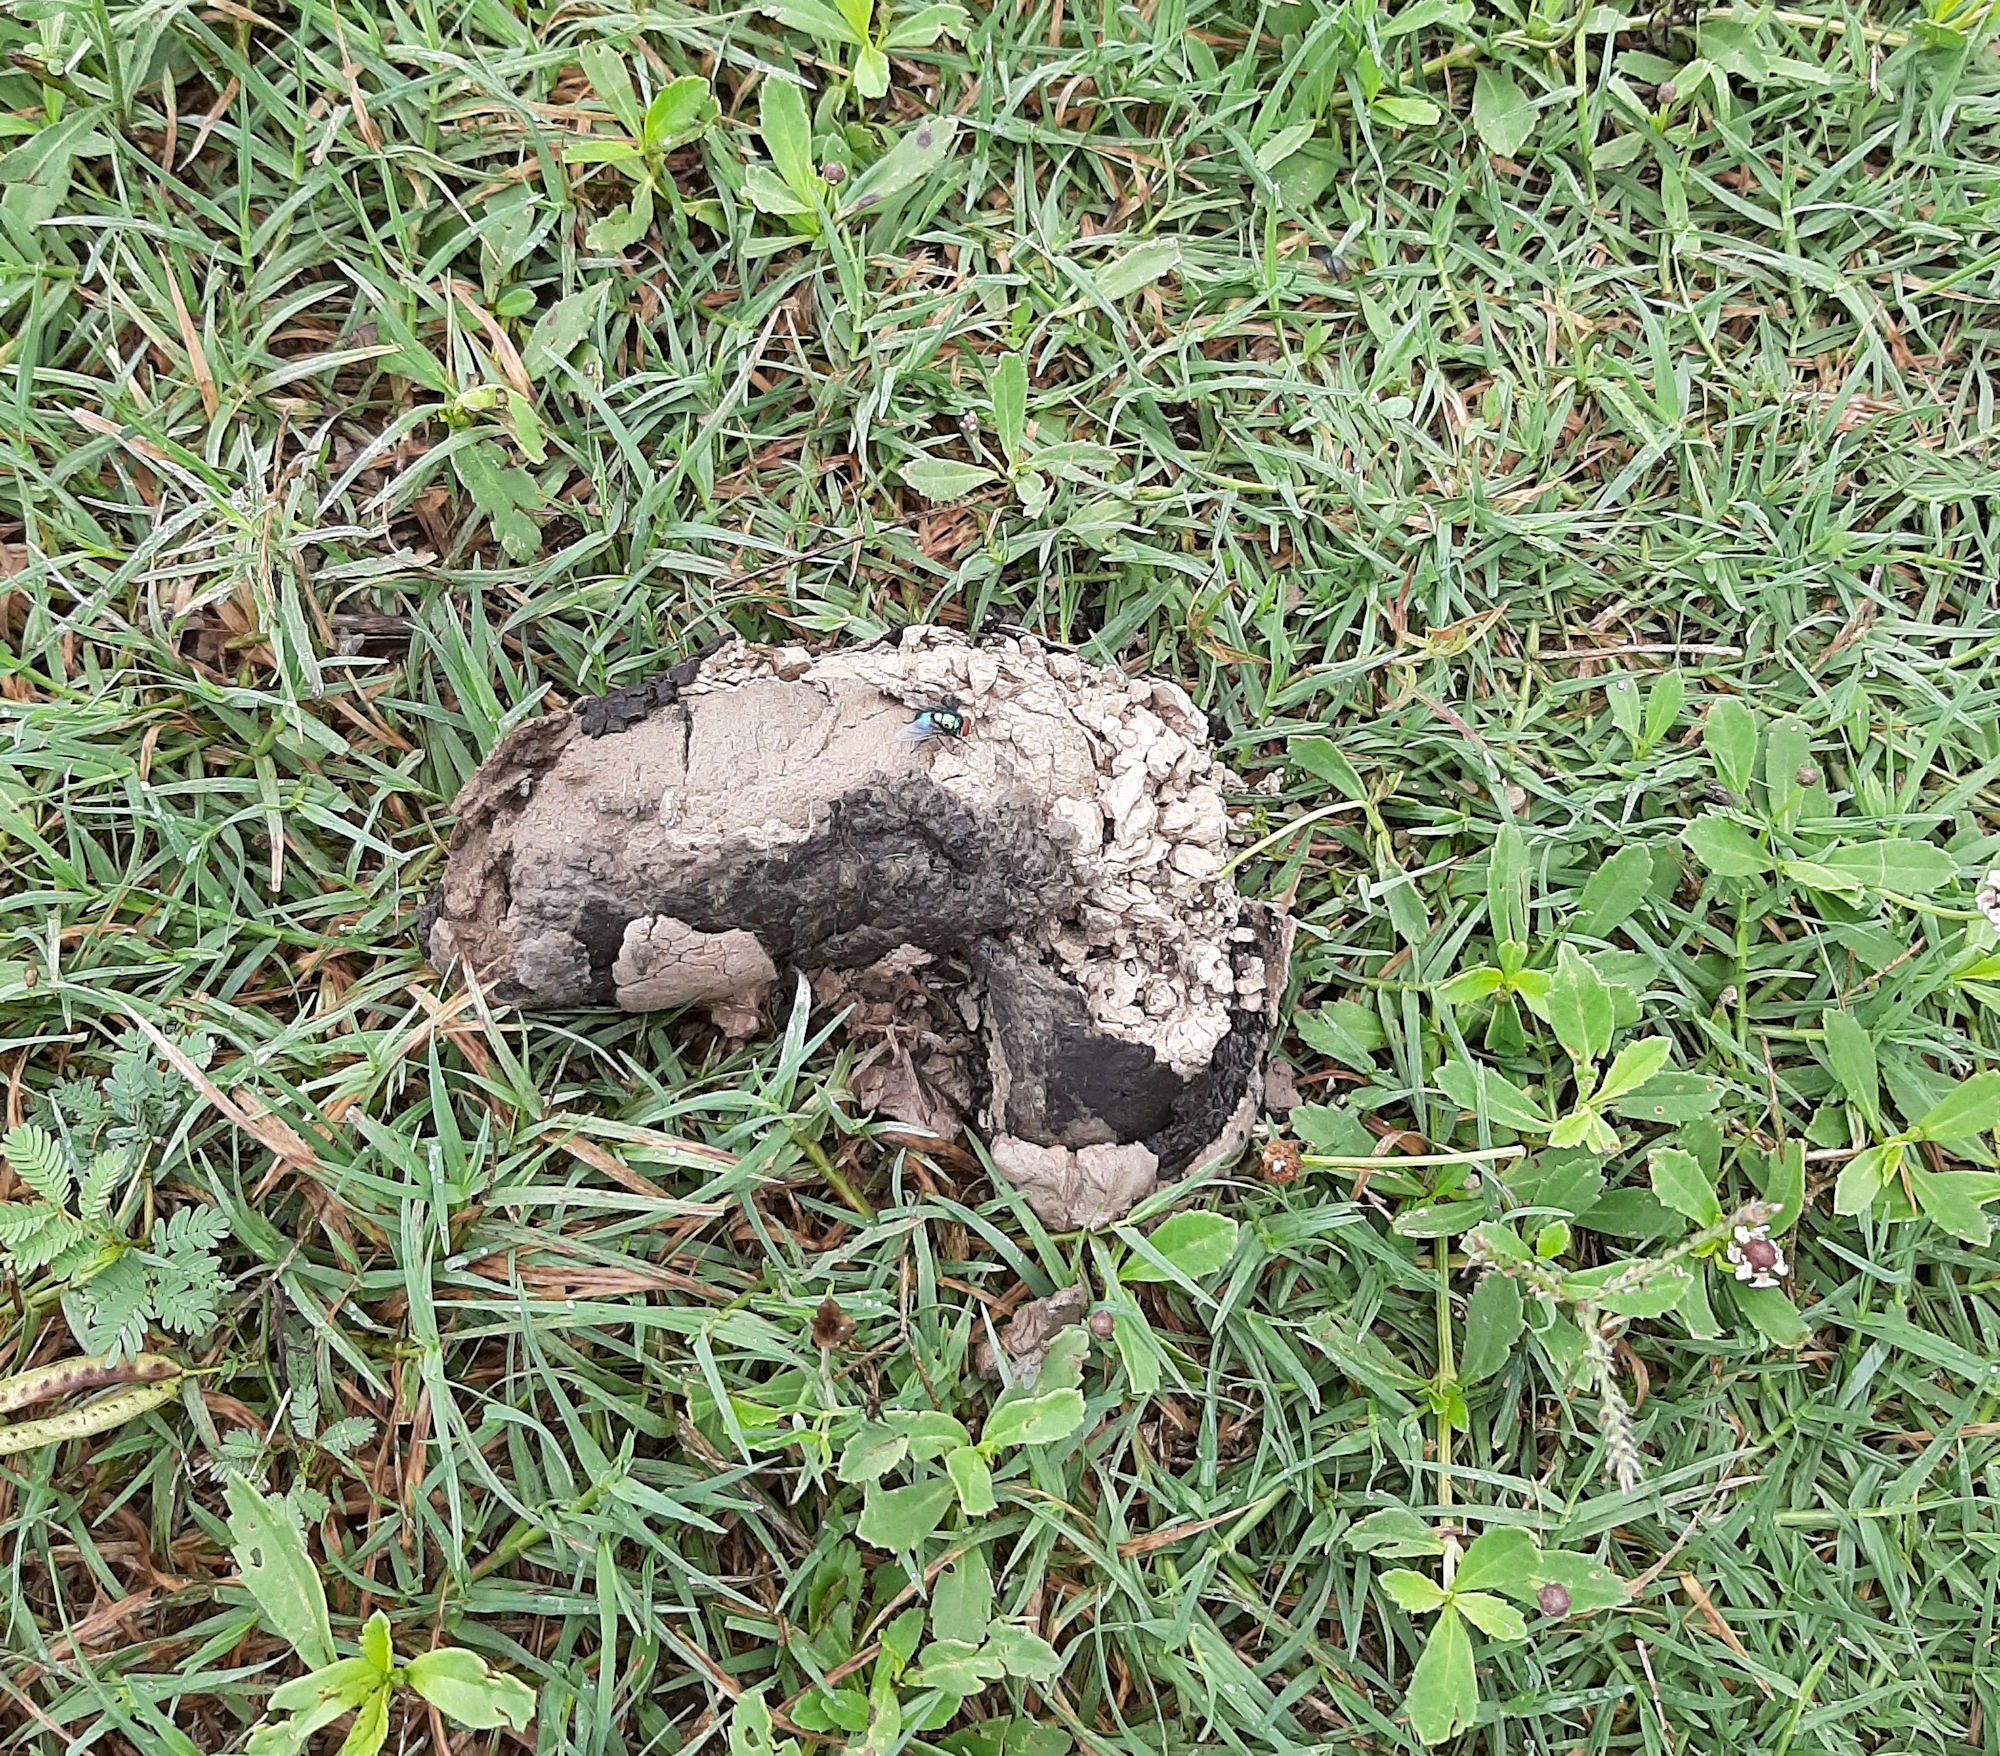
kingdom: Animalia
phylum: Chordata
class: Crocodylia
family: Alligatoridae
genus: Alligator
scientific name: Alligator mississippiensis
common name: American alligator
